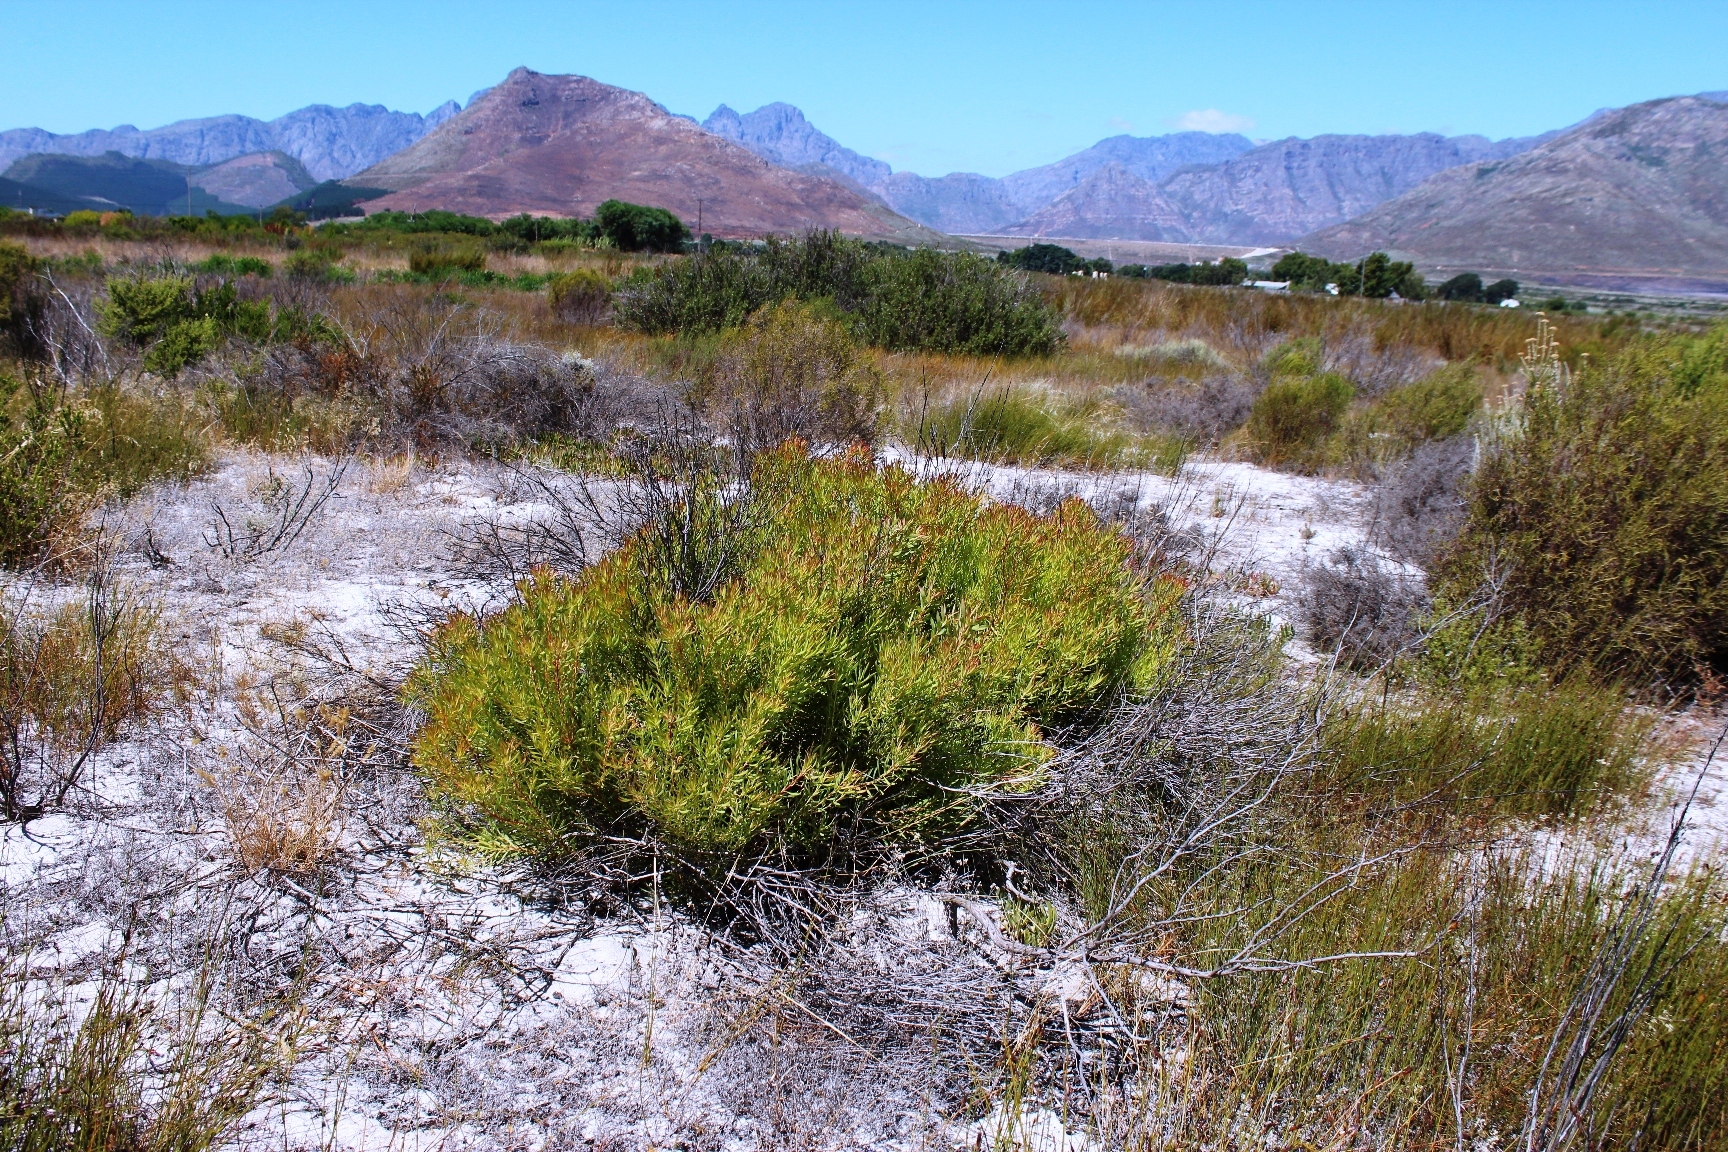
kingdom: Plantae
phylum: Tracheophyta
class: Magnoliopsida
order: Proteales
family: Proteaceae
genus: Leucadendron
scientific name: Leucadendron salignum
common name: Common sunshine conebush
